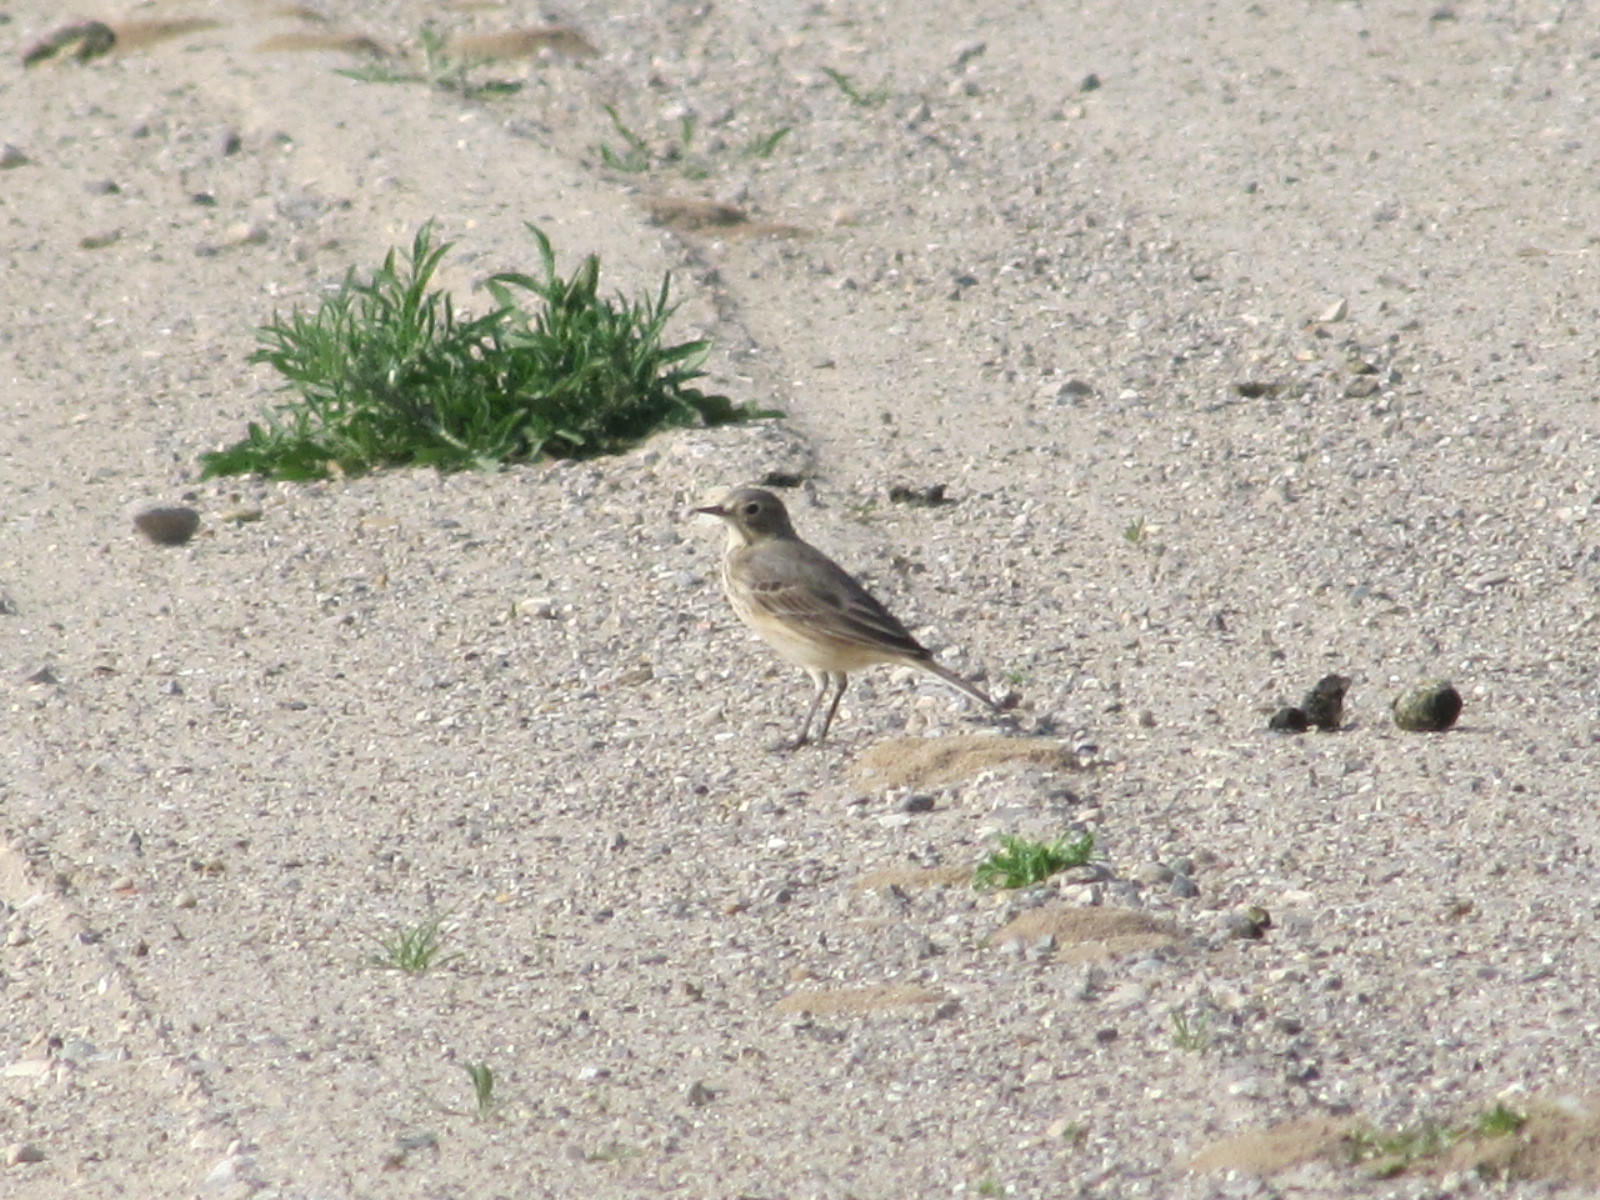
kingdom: Animalia
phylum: Chordata
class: Aves
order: Passeriformes
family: Motacillidae
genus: Anthus
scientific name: Anthus rubescens
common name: Buff-bellied pipit
